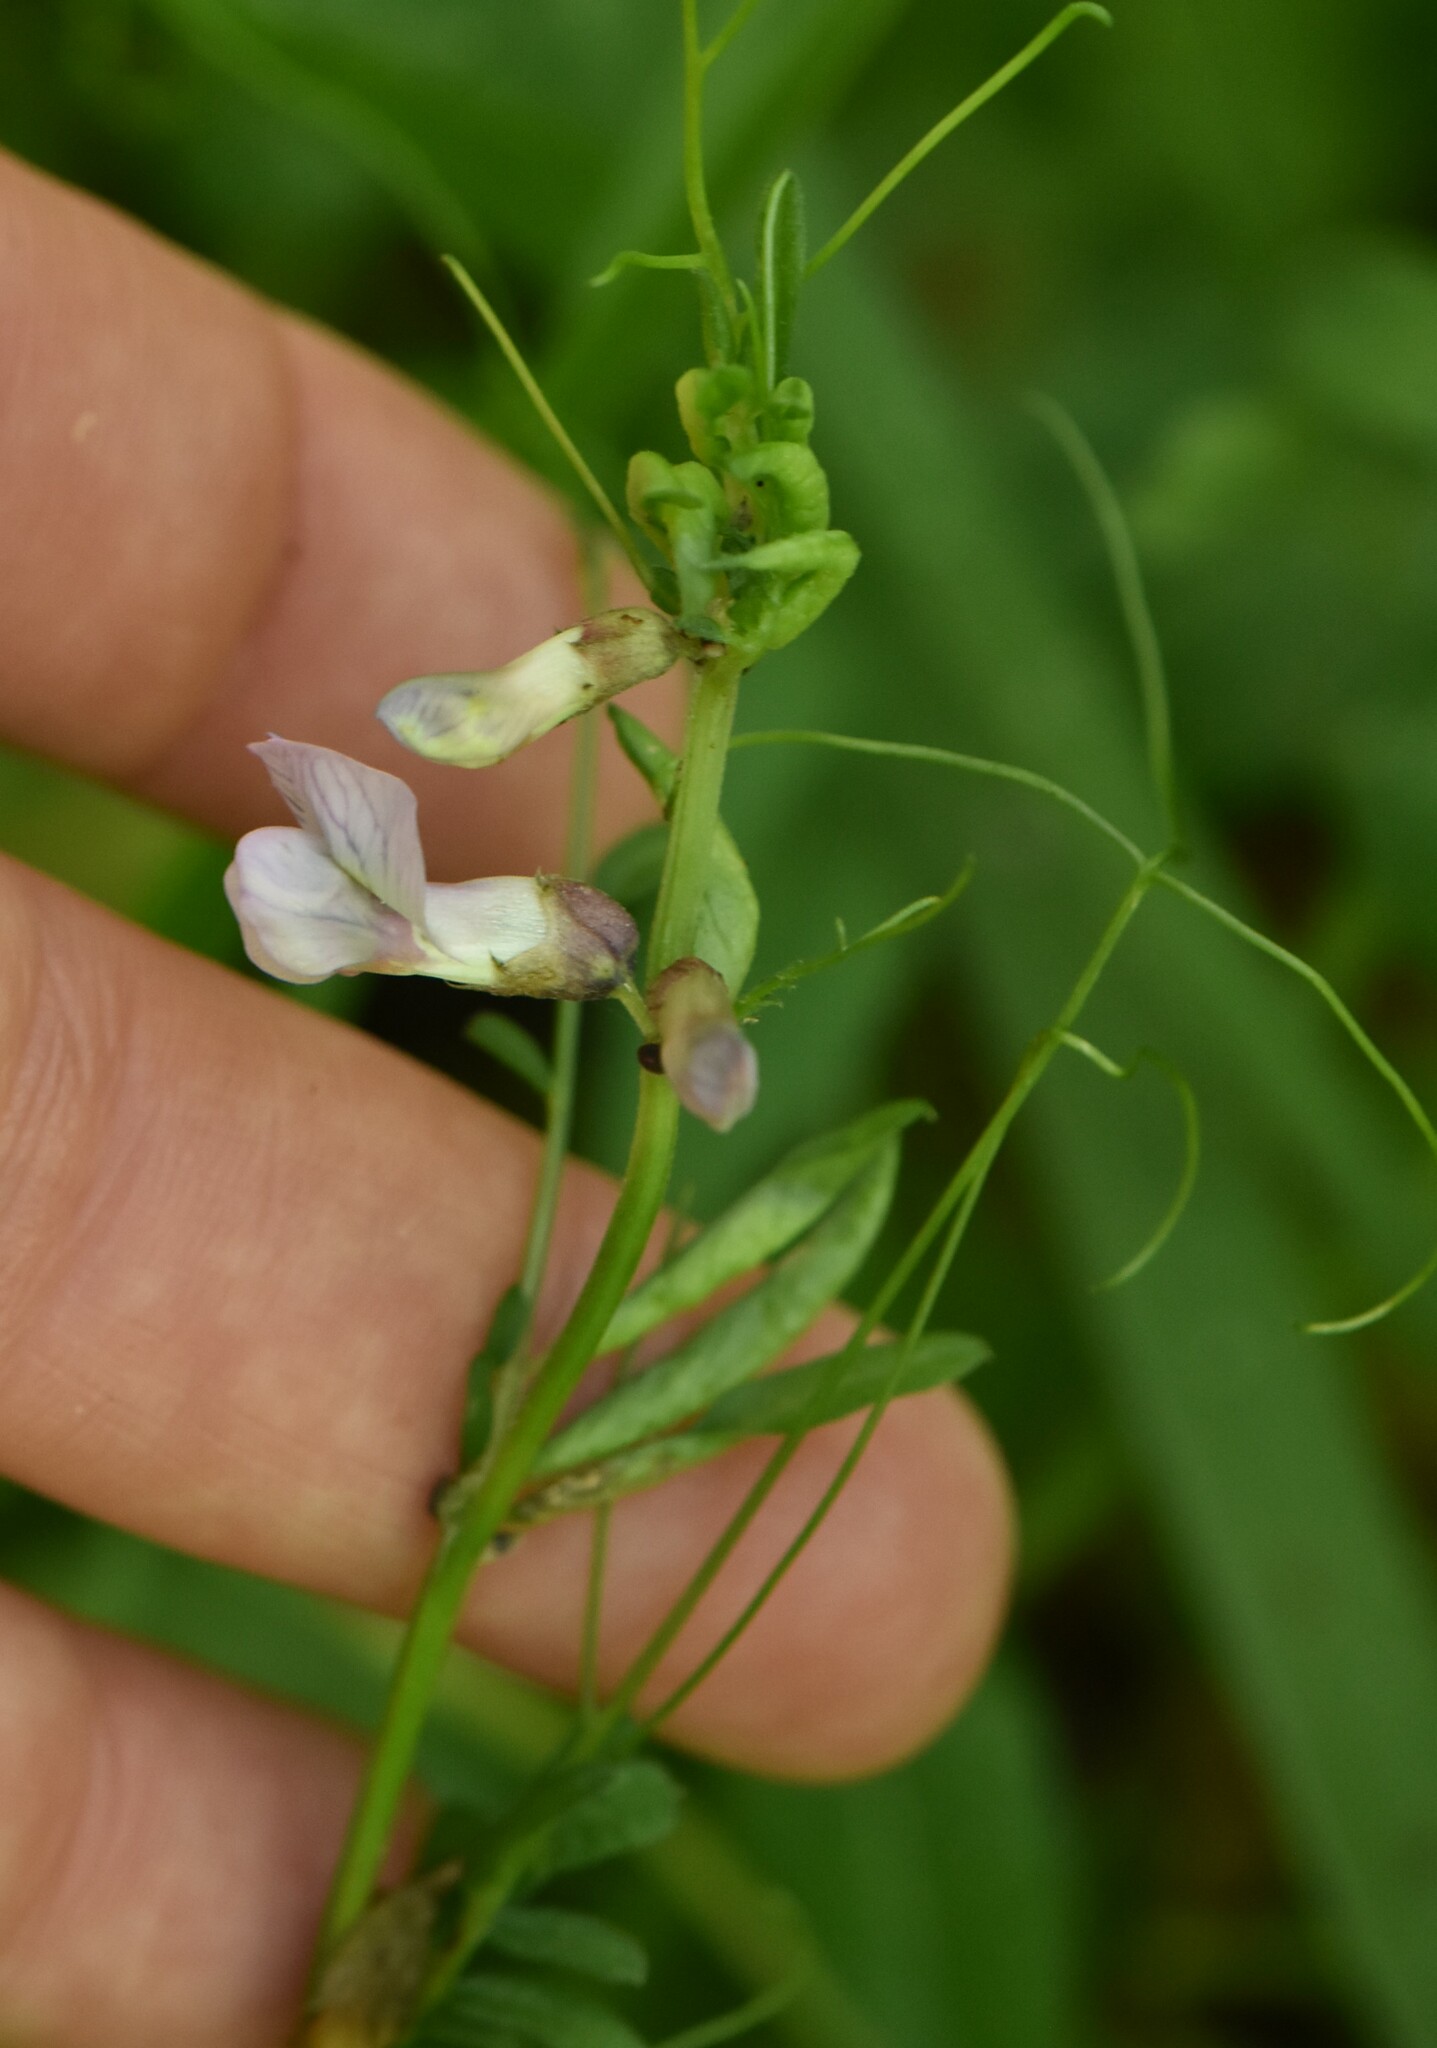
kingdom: Plantae
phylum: Tracheophyta
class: Magnoliopsida
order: Fabales
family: Fabaceae
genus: Vicia
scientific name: Vicia sepium
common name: Bush vetch
